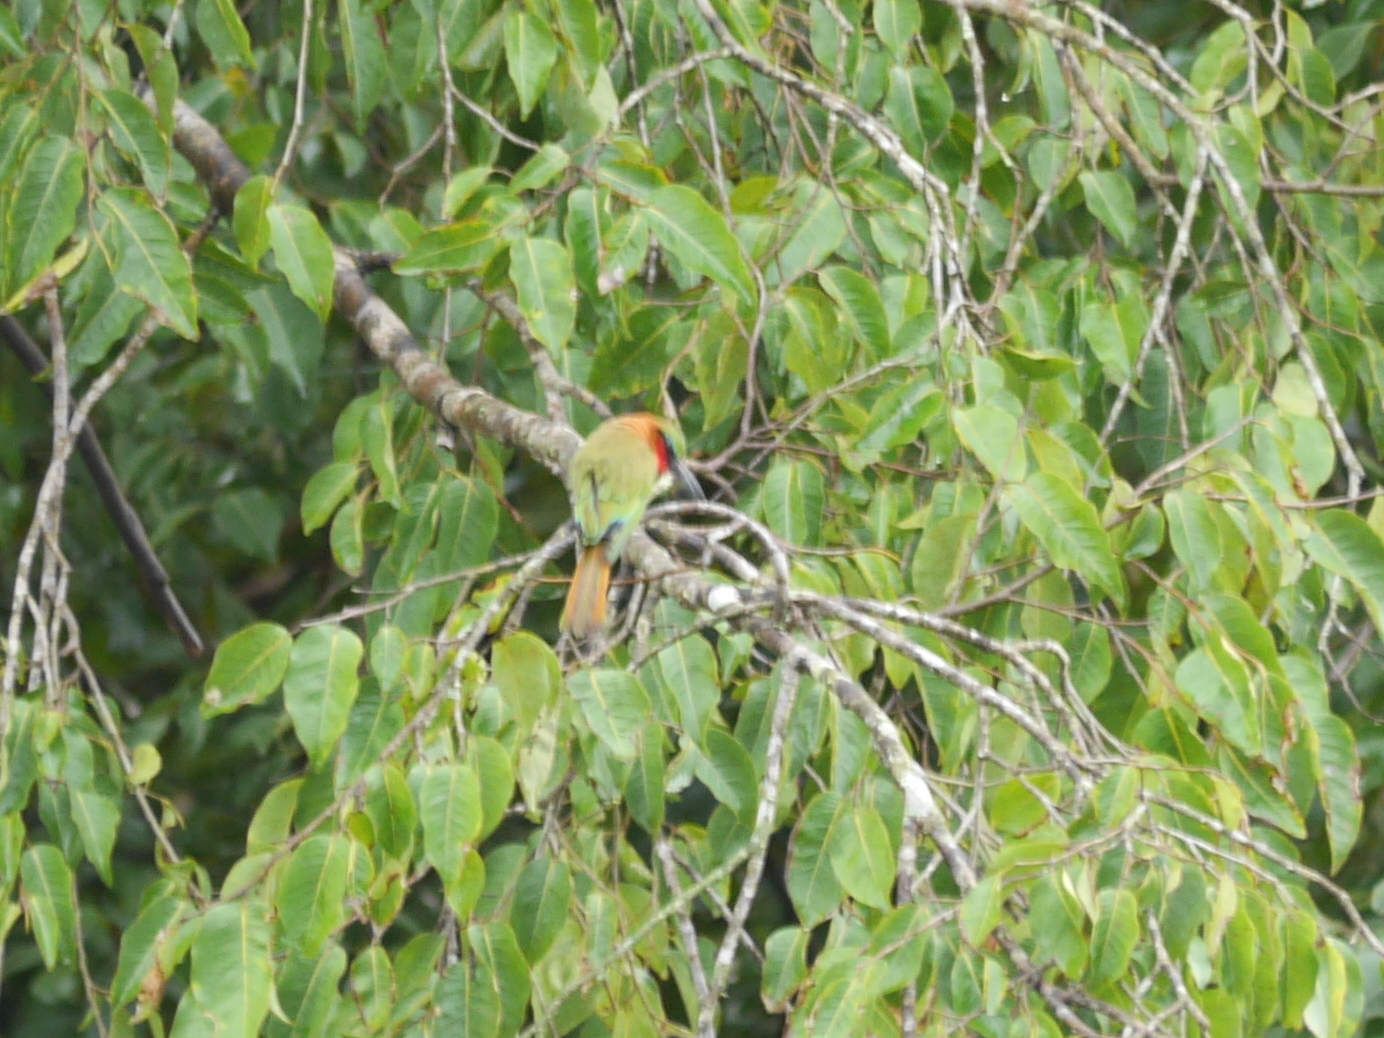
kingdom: Animalia
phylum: Chordata
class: Aves
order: Coraciiformes
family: Meropidae
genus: Merops
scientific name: Merops bulocki
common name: Red-throated bee-eater
